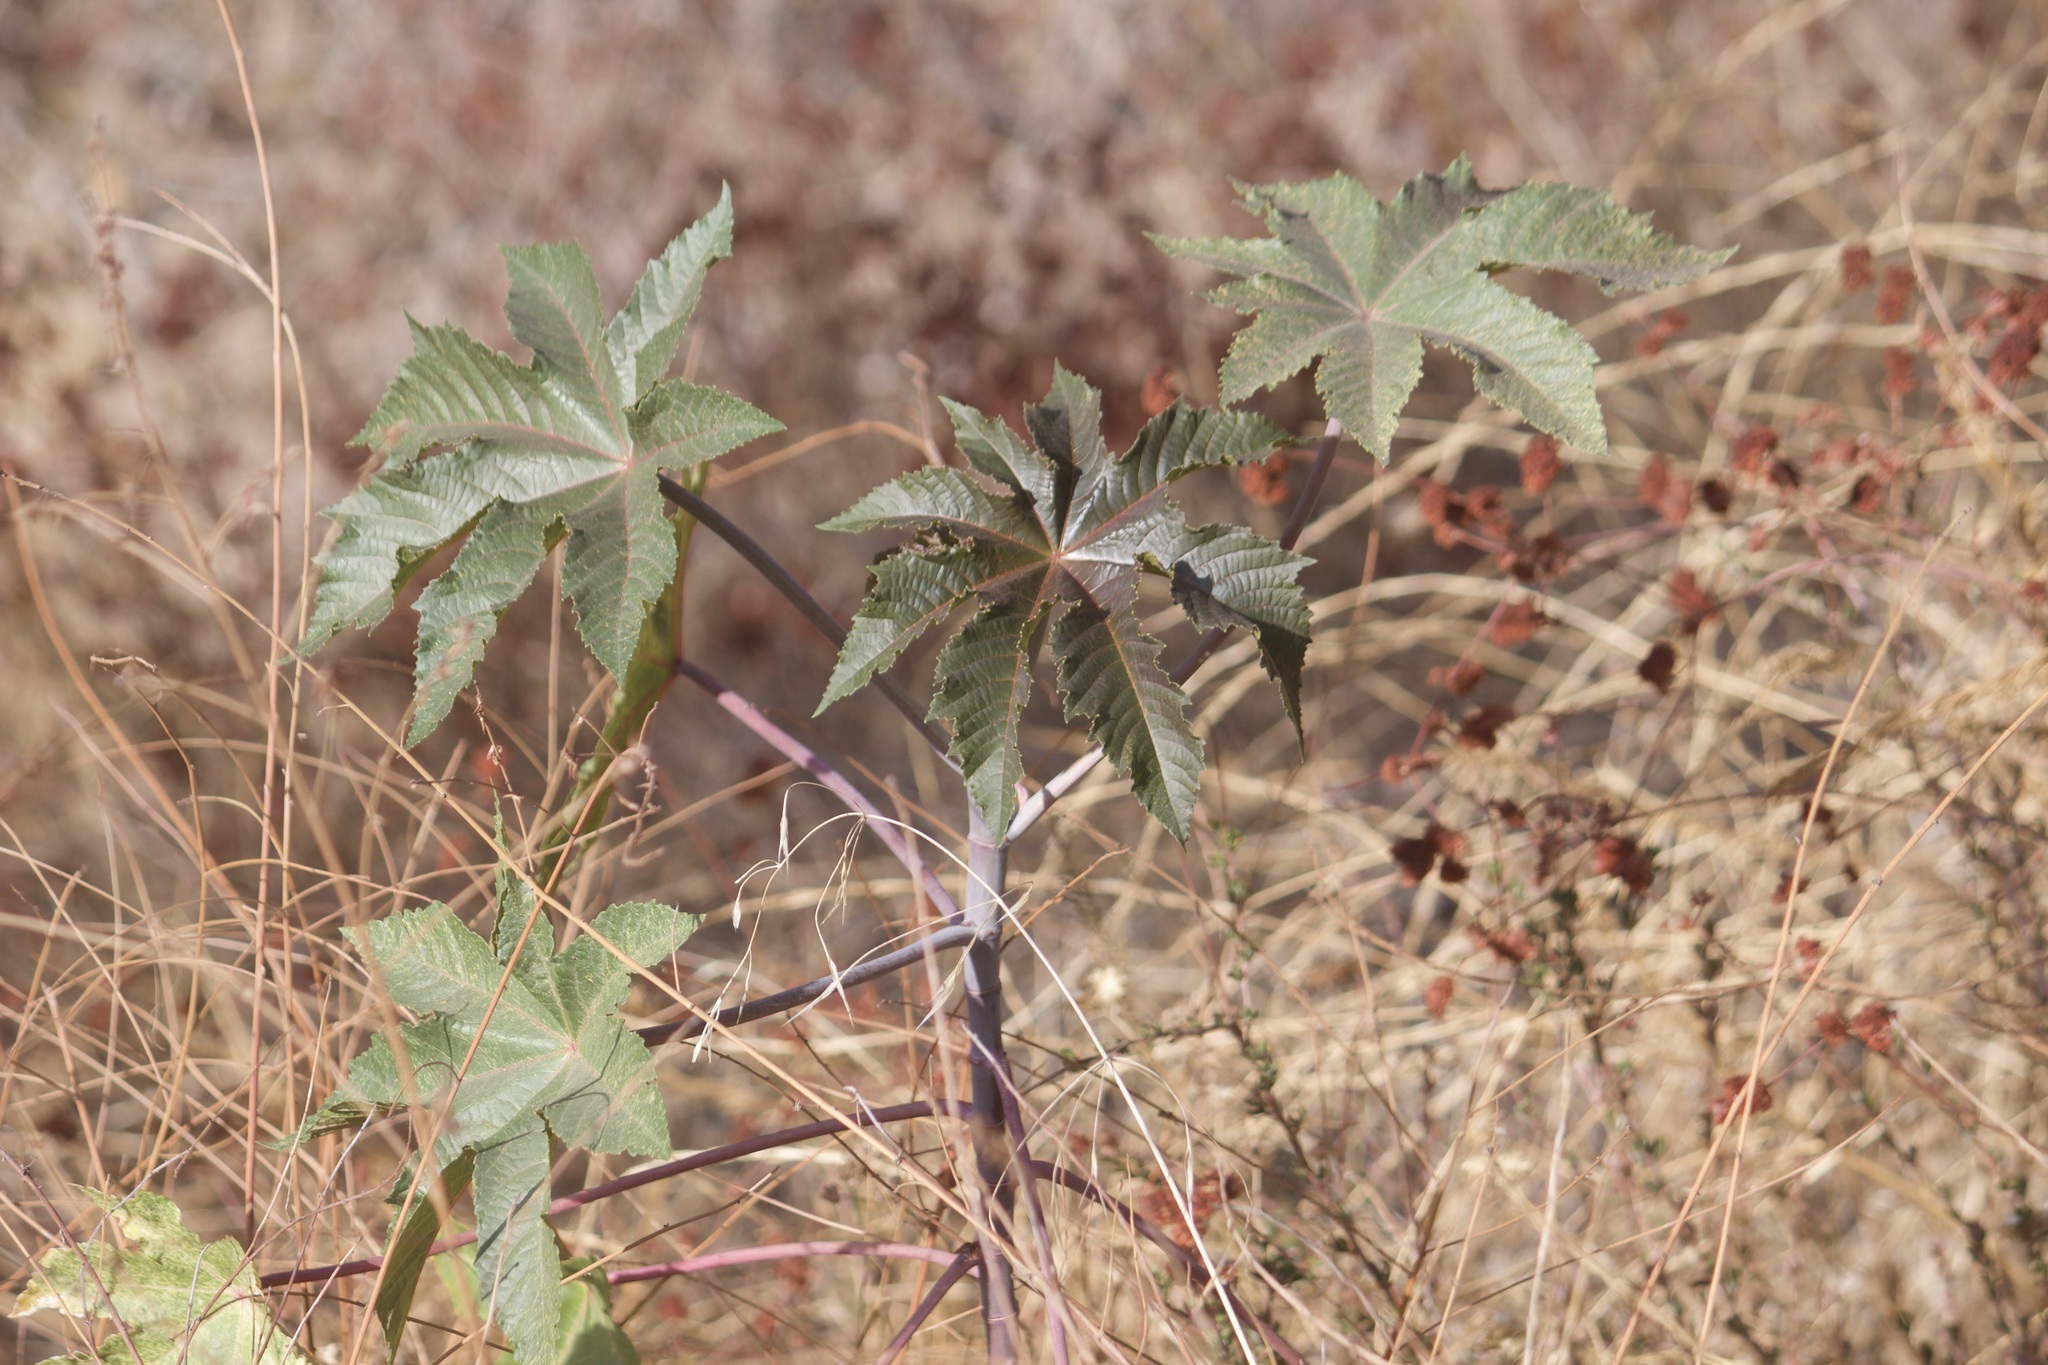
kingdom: Plantae
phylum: Tracheophyta
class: Magnoliopsida
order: Malpighiales
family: Euphorbiaceae
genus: Ricinus
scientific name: Ricinus communis
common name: Castor-oil-plant
